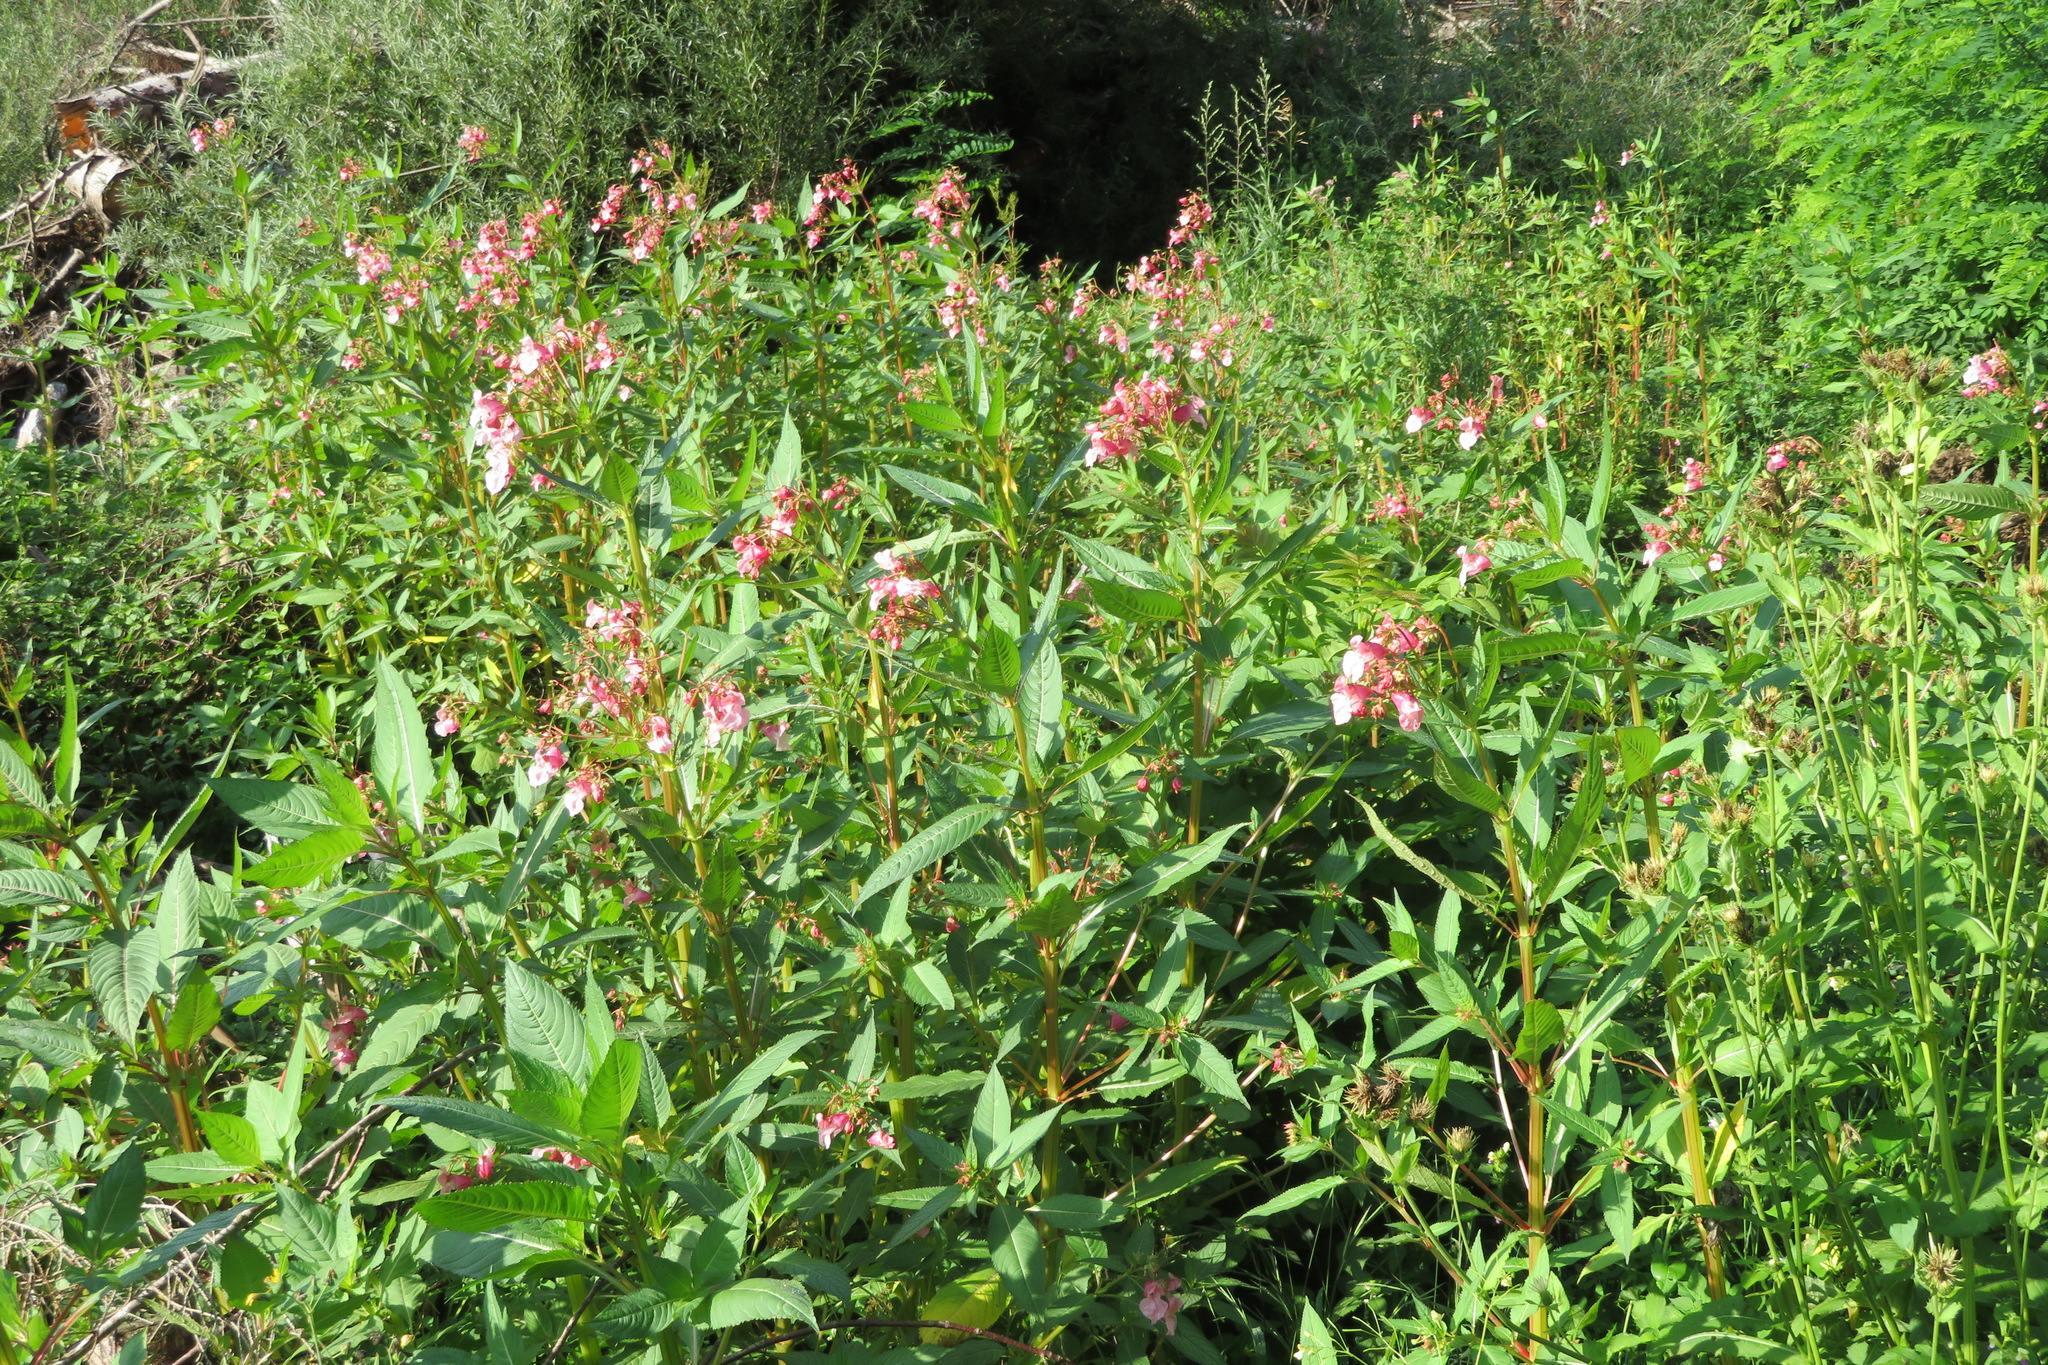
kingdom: Plantae
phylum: Tracheophyta
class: Magnoliopsida
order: Ericales
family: Balsaminaceae
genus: Impatiens
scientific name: Impatiens glandulifera
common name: Himalayan balsam
